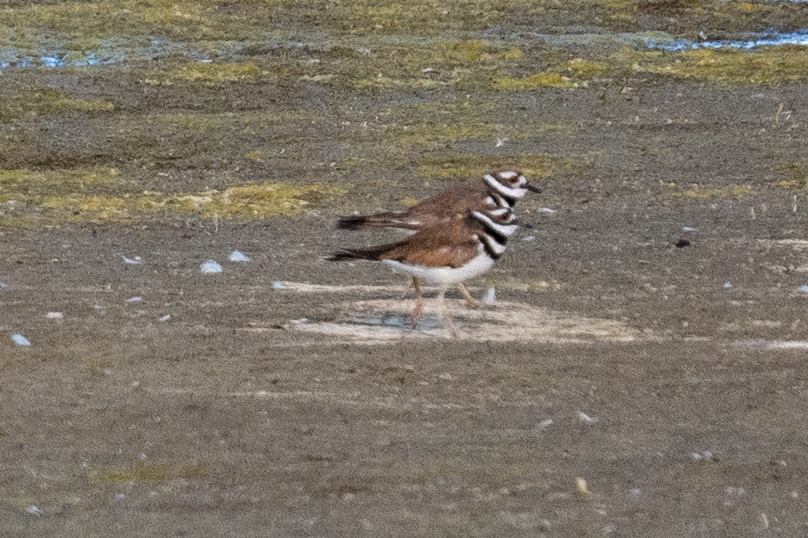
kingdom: Animalia
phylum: Chordata
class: Aves
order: Charadriiformes
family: Charadriidae
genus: Charadrius
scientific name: Charadrius vociferus
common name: Killdeer
